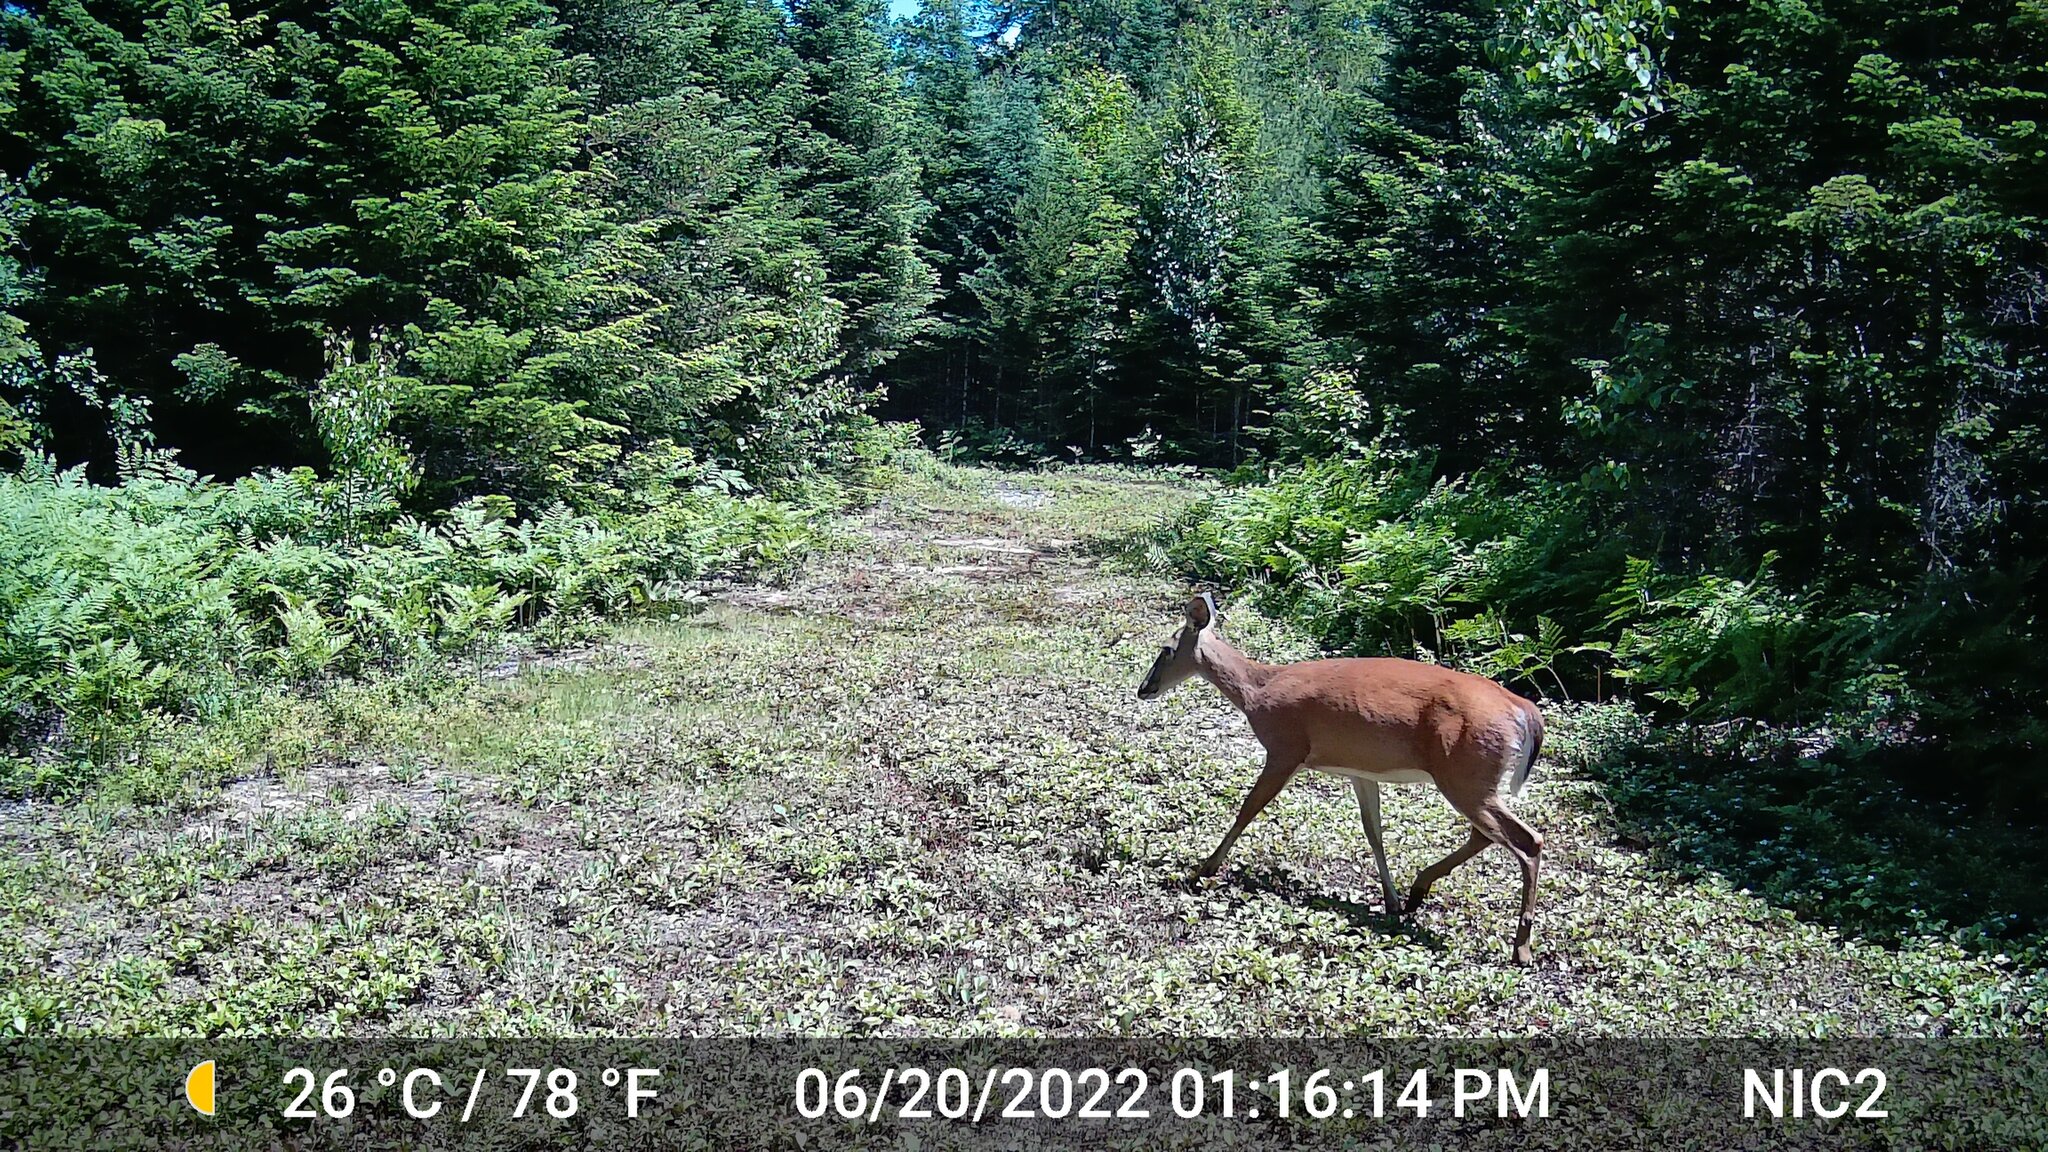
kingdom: Animalia
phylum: Chordata
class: Mammalia
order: Artiodactyla
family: Cervidae
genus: Odocoileus
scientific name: Odocoileus virginianus
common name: White-tailed deer
